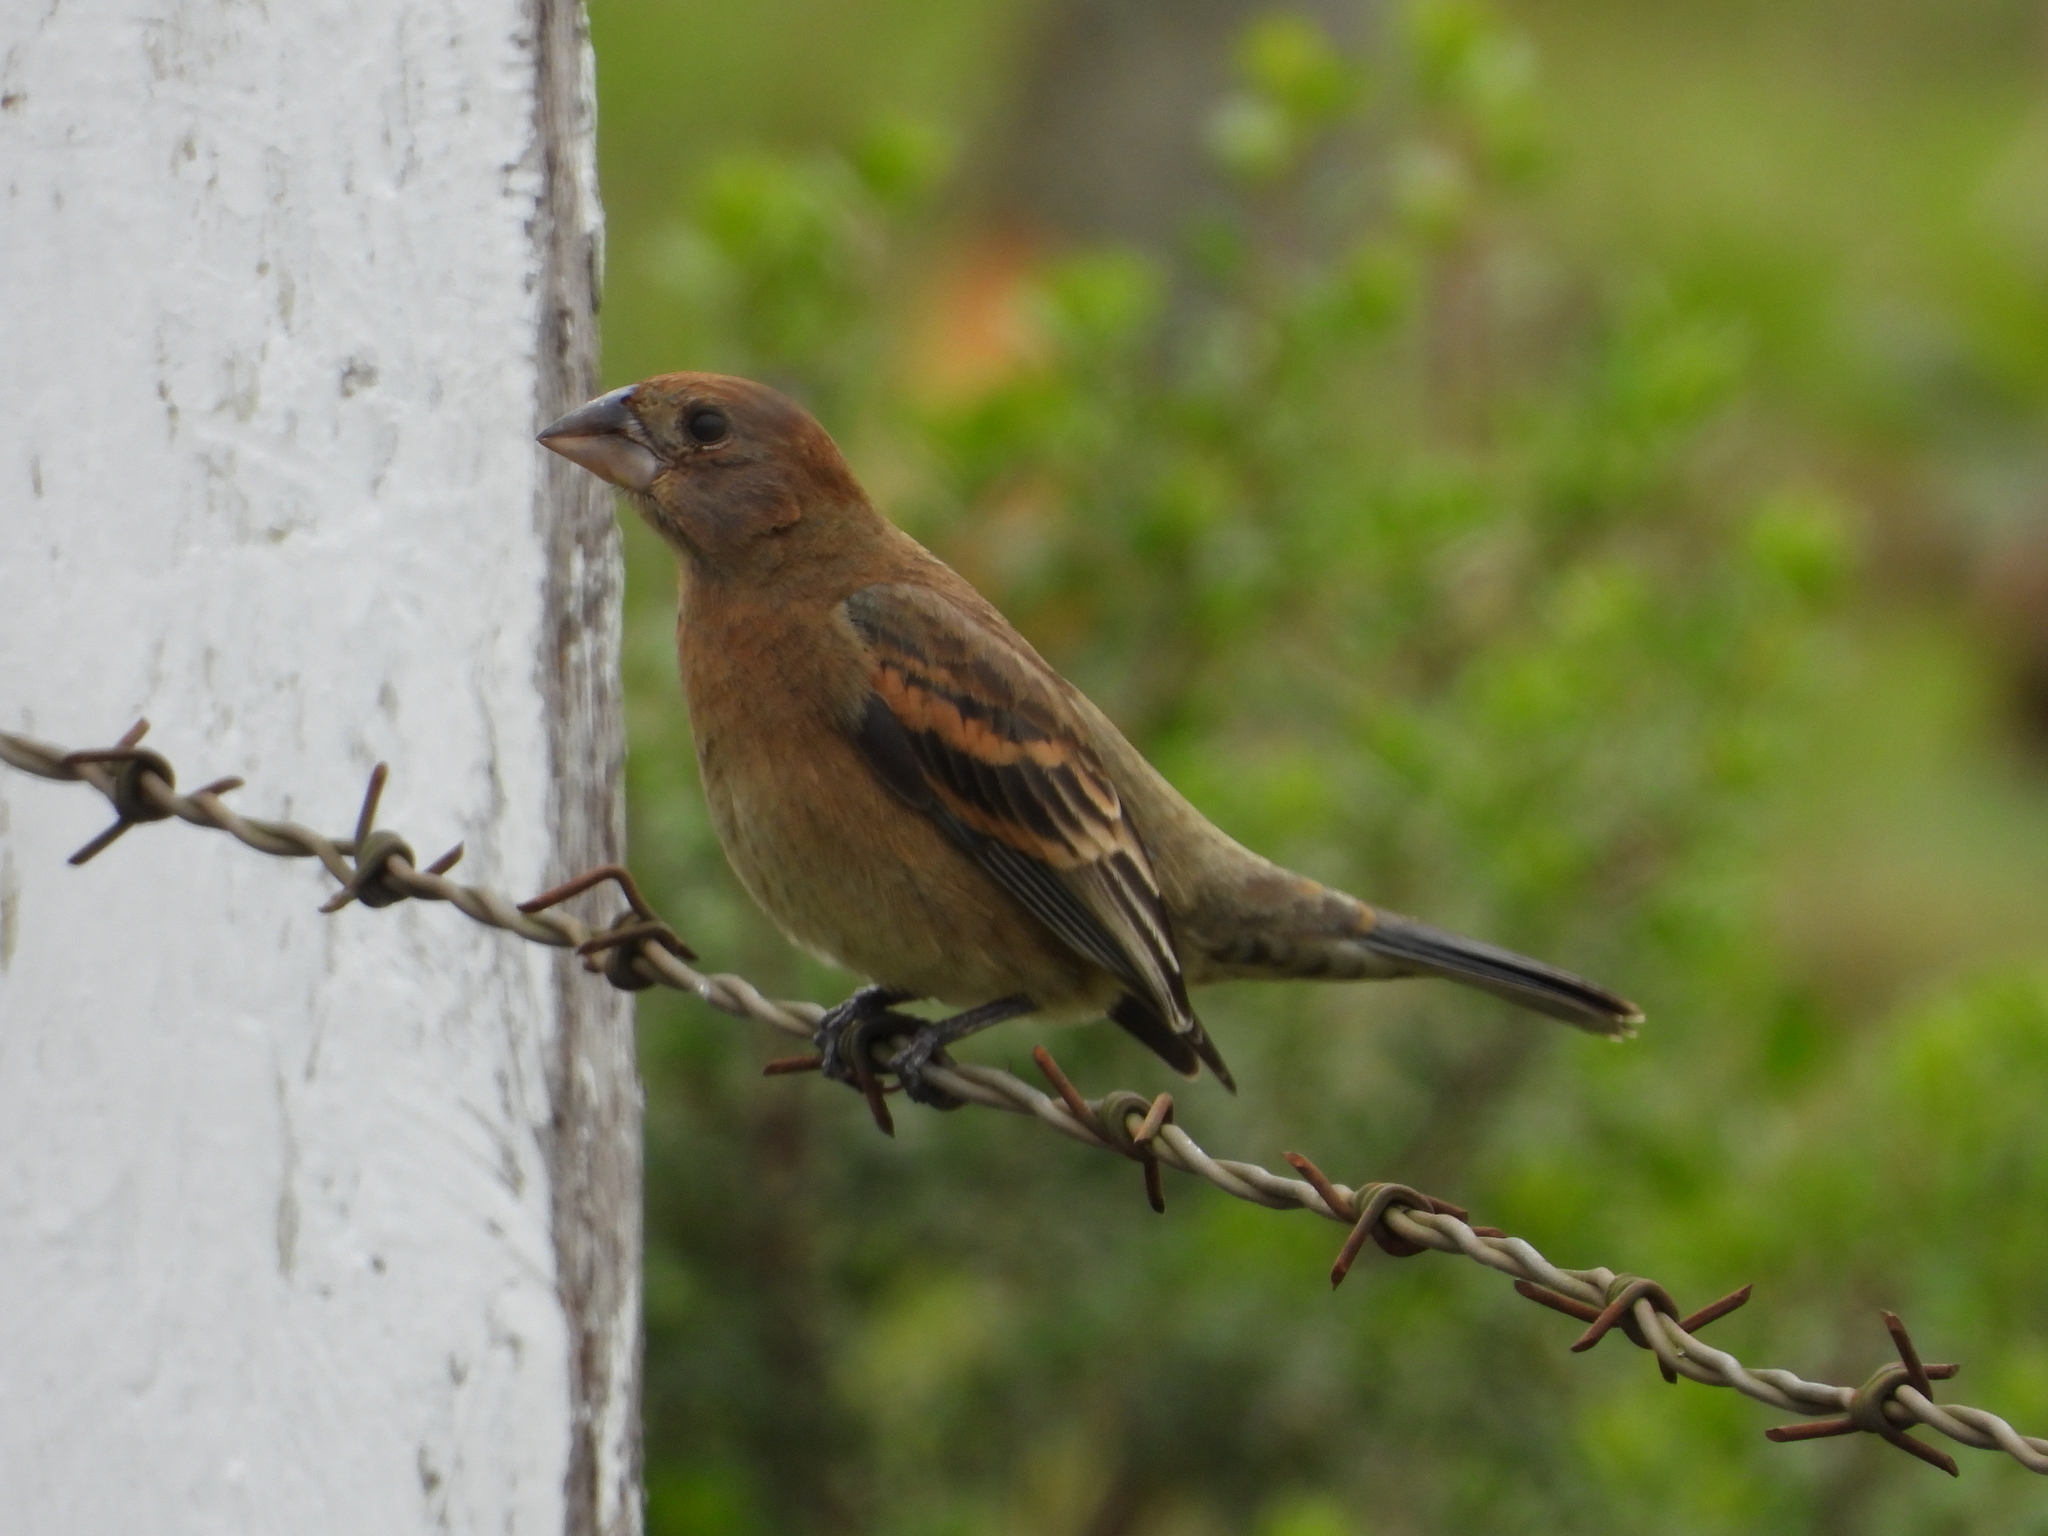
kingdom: Animalia
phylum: Chordata
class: Aves
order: Passeriformes
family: Cardinalidae
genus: Passerina
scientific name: Passerina caerulea
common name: Blue grosbeak
